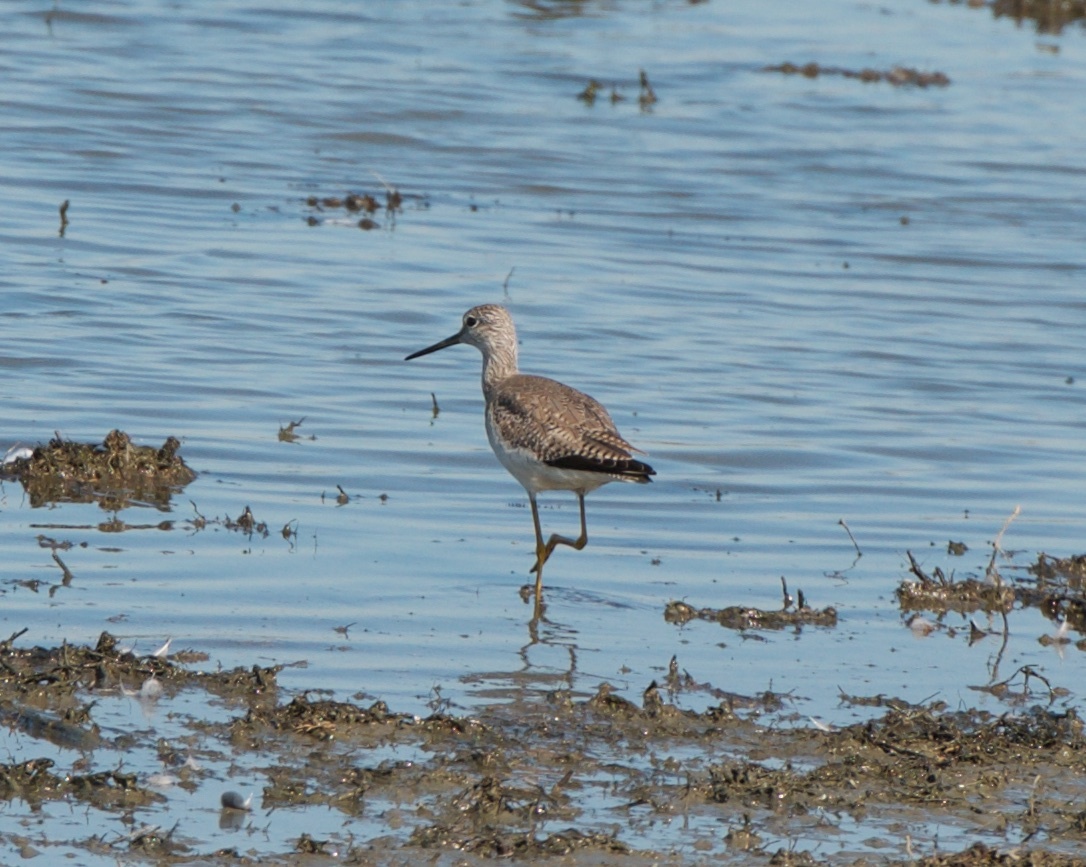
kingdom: Animalia
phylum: Chordata
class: Aves
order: Charadriiformes
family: Scolopacidae
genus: Tringa
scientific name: Tringa melanoleuca
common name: Greater yellowlegs
